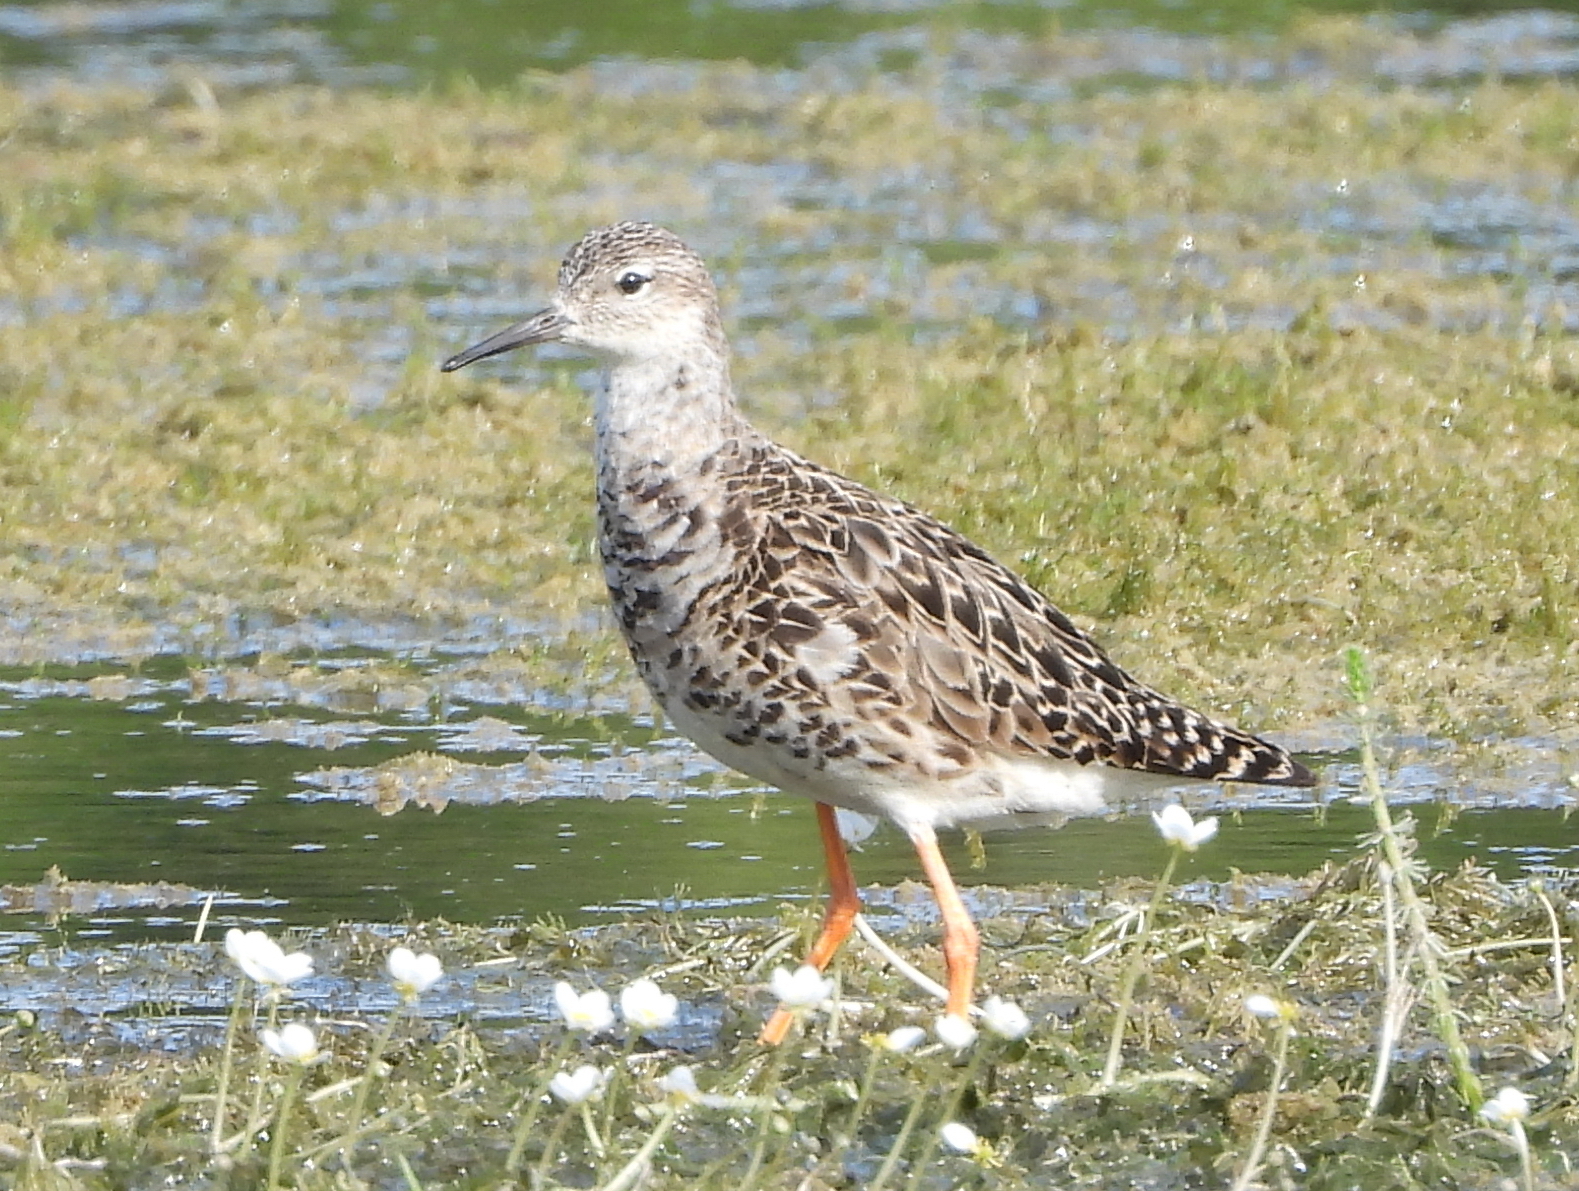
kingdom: Animalia
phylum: Chordata
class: Aves
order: Charadriiformes
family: Scolopacidae
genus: Calidris
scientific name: Calidris pugnax
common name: Ruff
